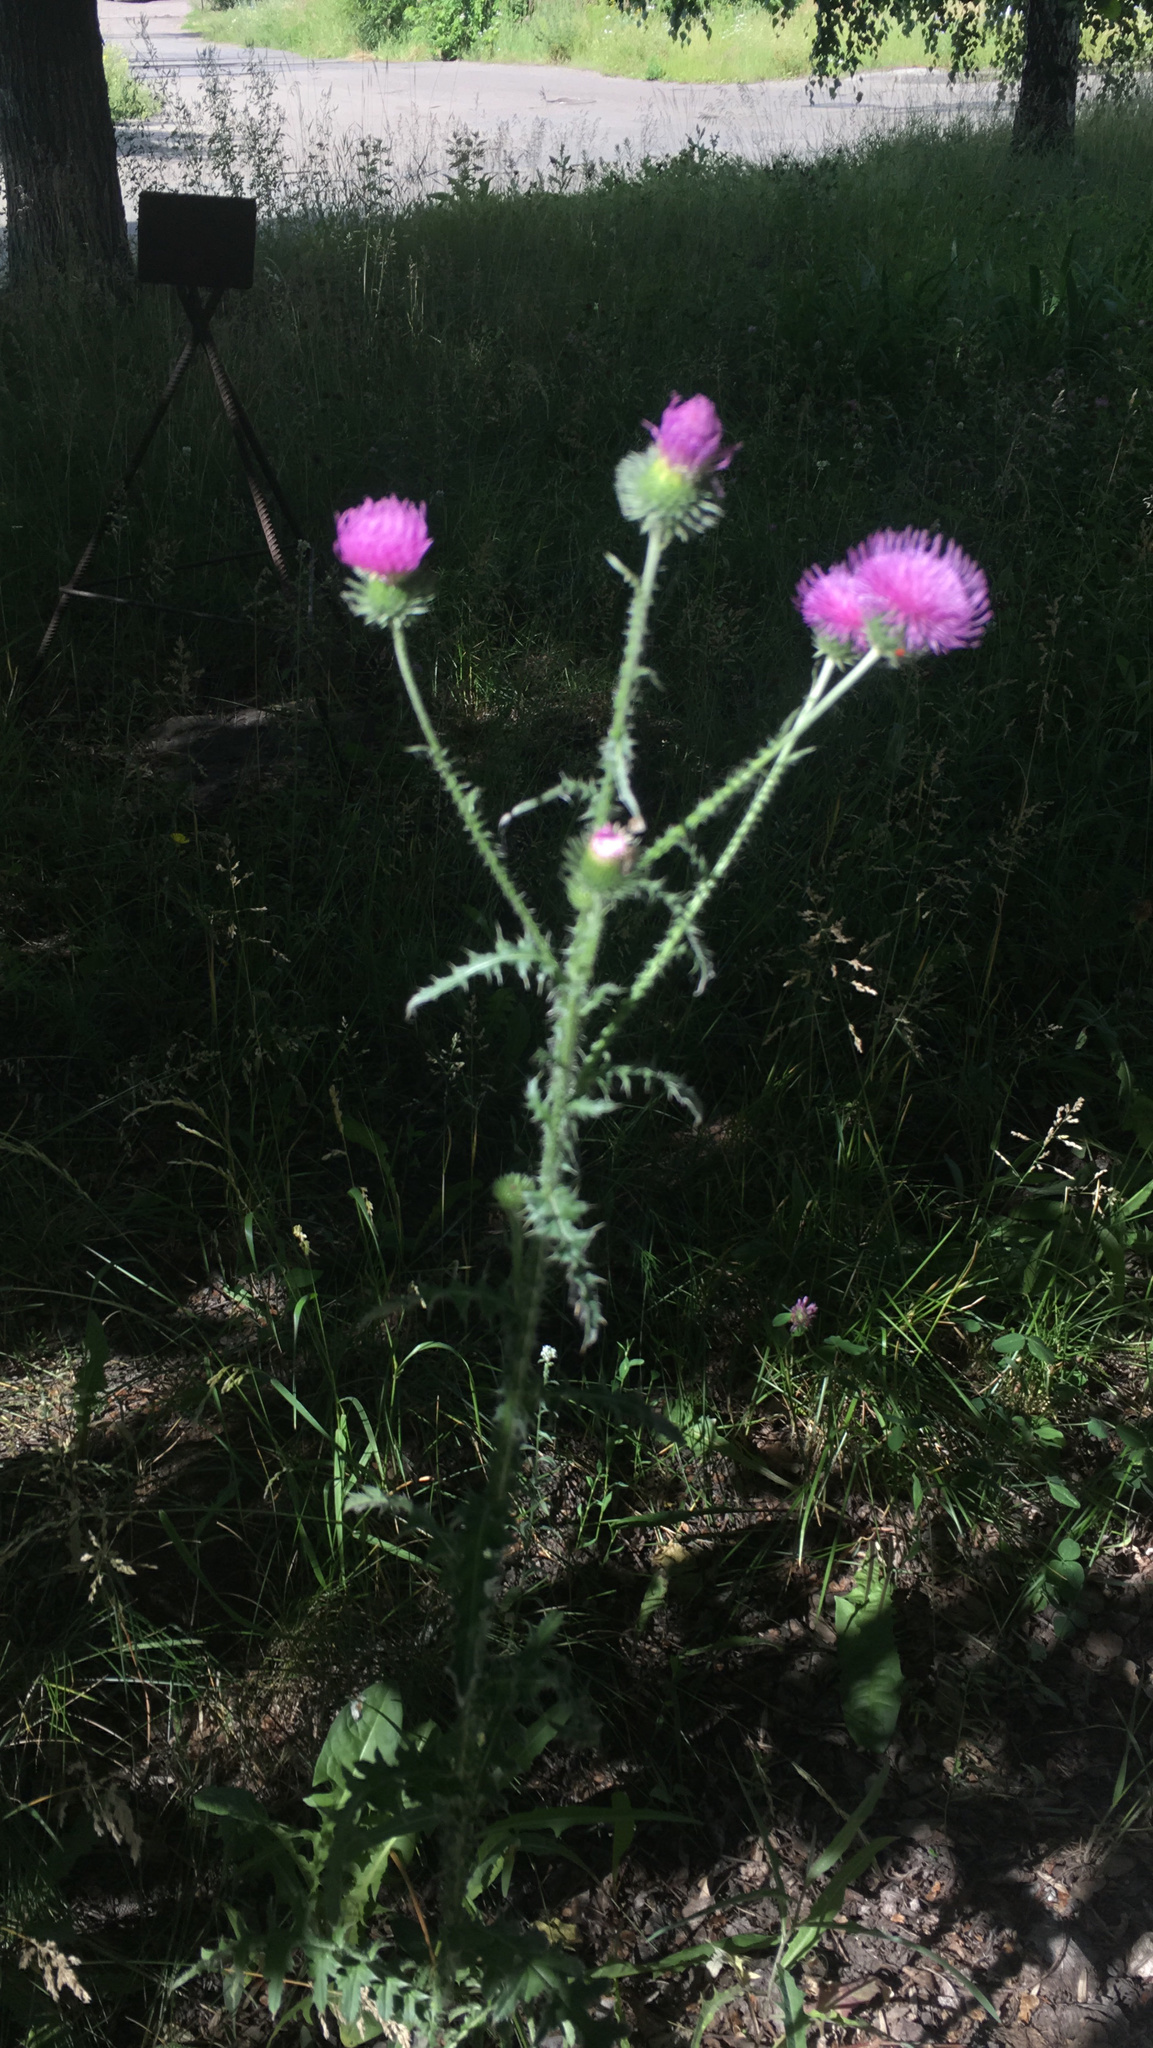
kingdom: Plantae
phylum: Tracheophyta
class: Magnoliopsida
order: Asterales
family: Asteraceae
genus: Carduus
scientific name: Carduus acanthoides
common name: Plumeless thistle
